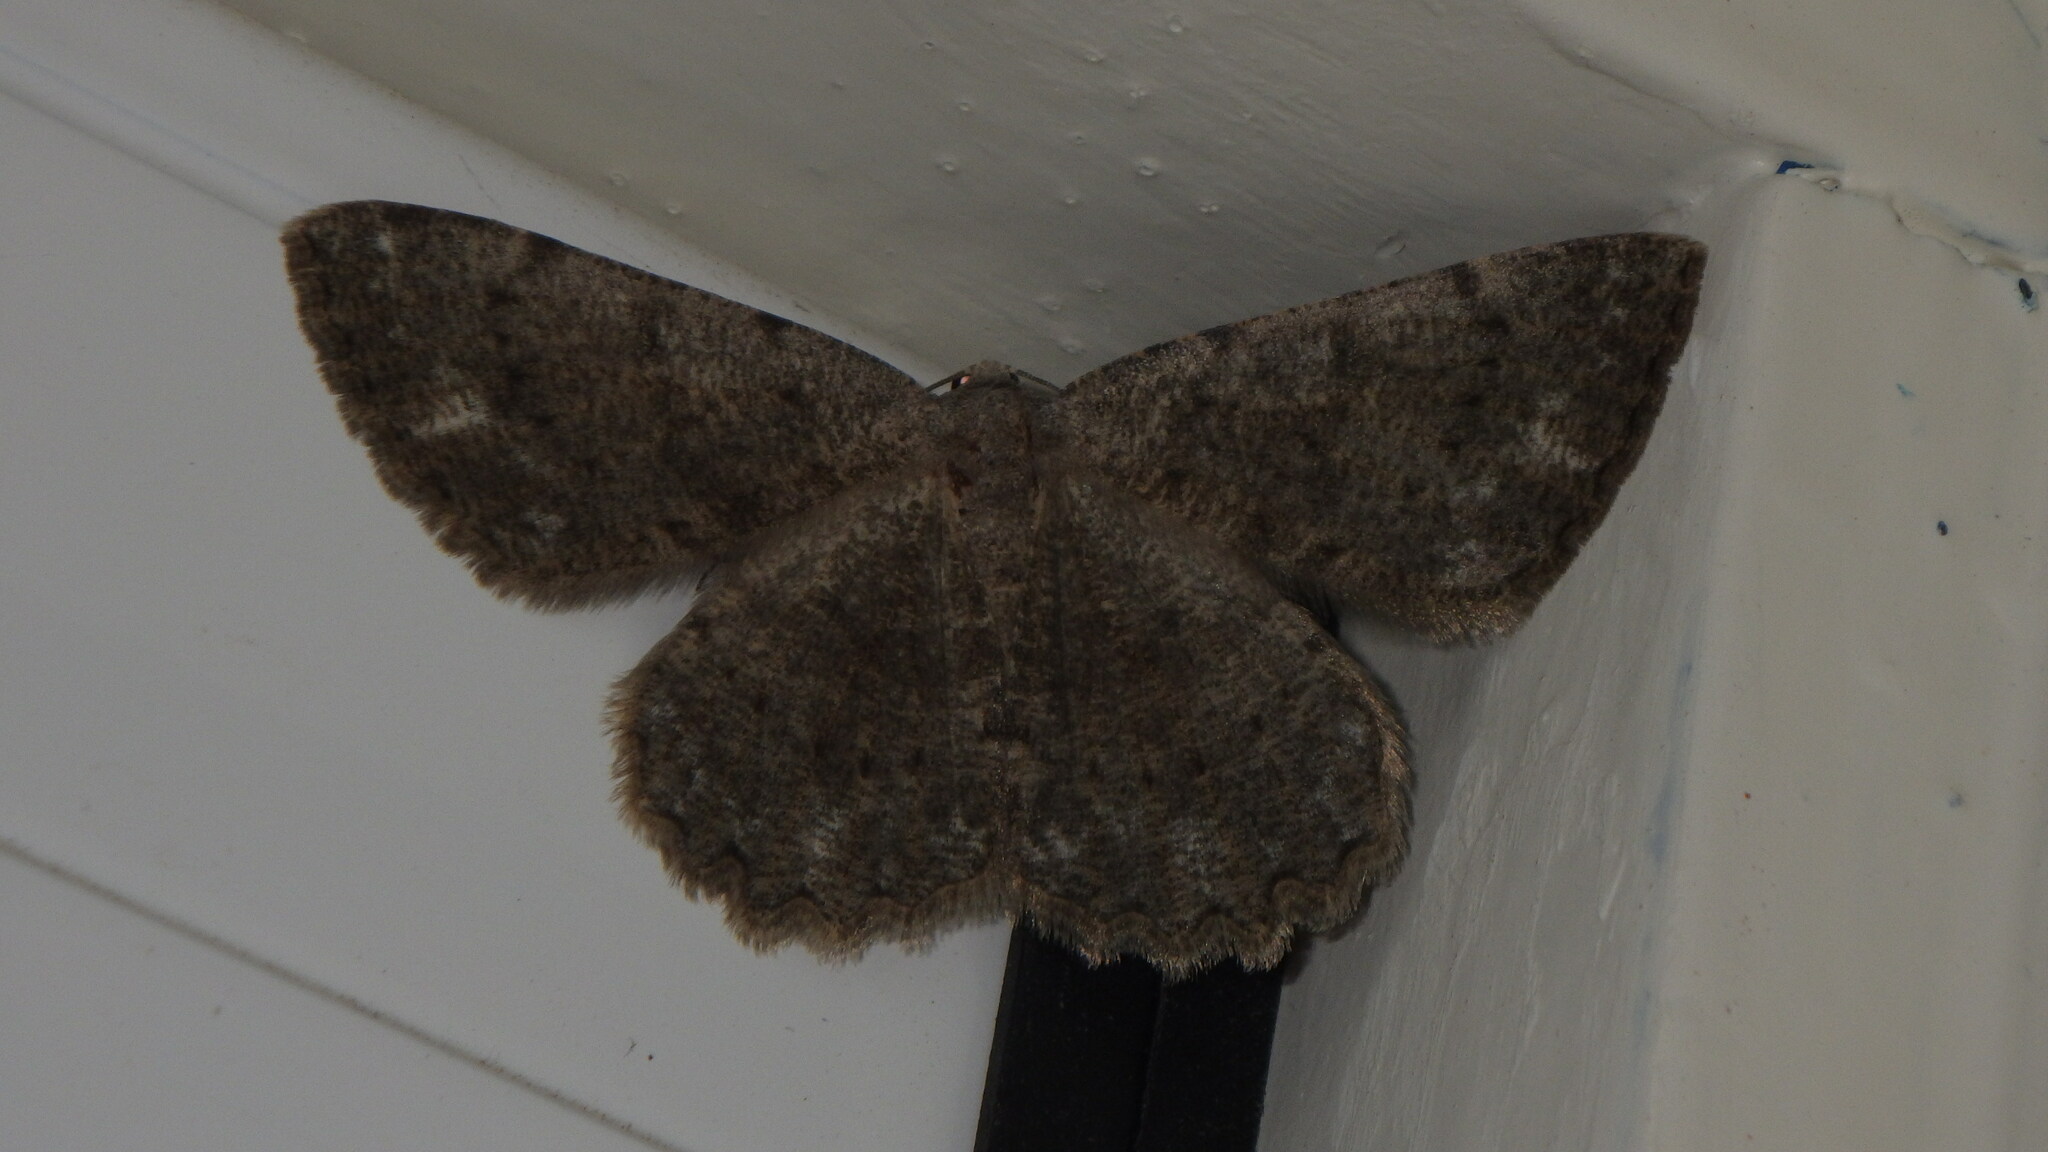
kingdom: Animalia
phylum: Arthropoda
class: Insecta
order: Lepidoptera
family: Geometridae
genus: Gnophos
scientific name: Gnophos sartata
